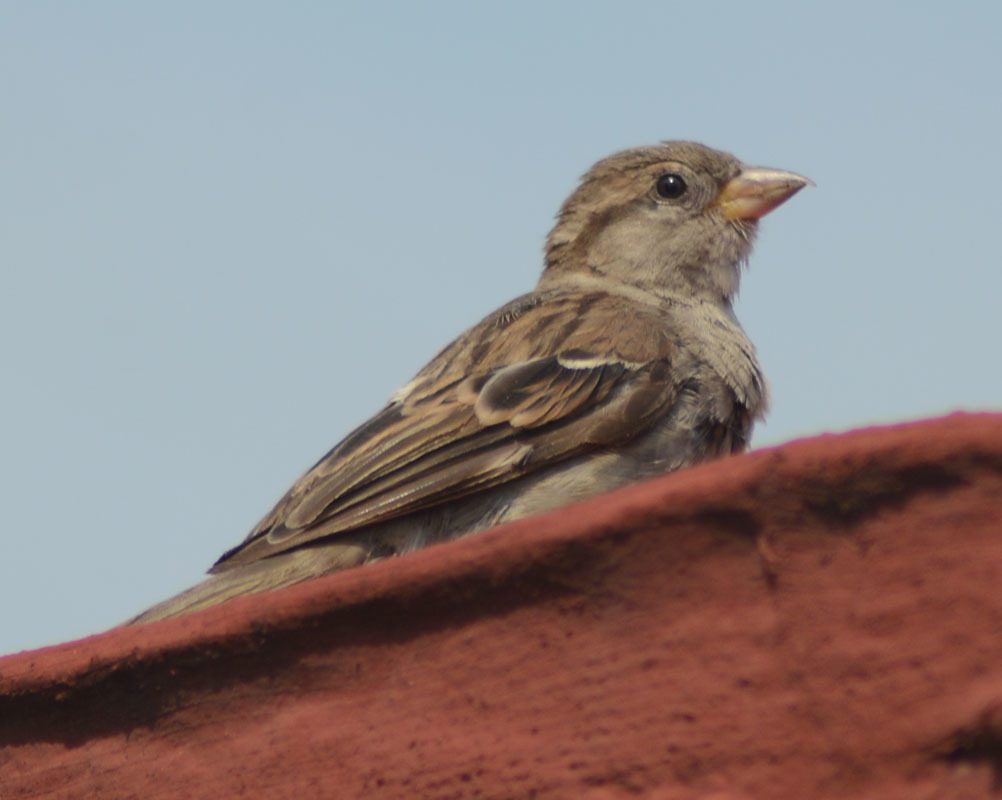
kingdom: Animalia
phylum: Chordata
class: Aves
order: Passeriformes
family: Passeridae
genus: Passer
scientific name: Passer domesticus
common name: House sparrow
